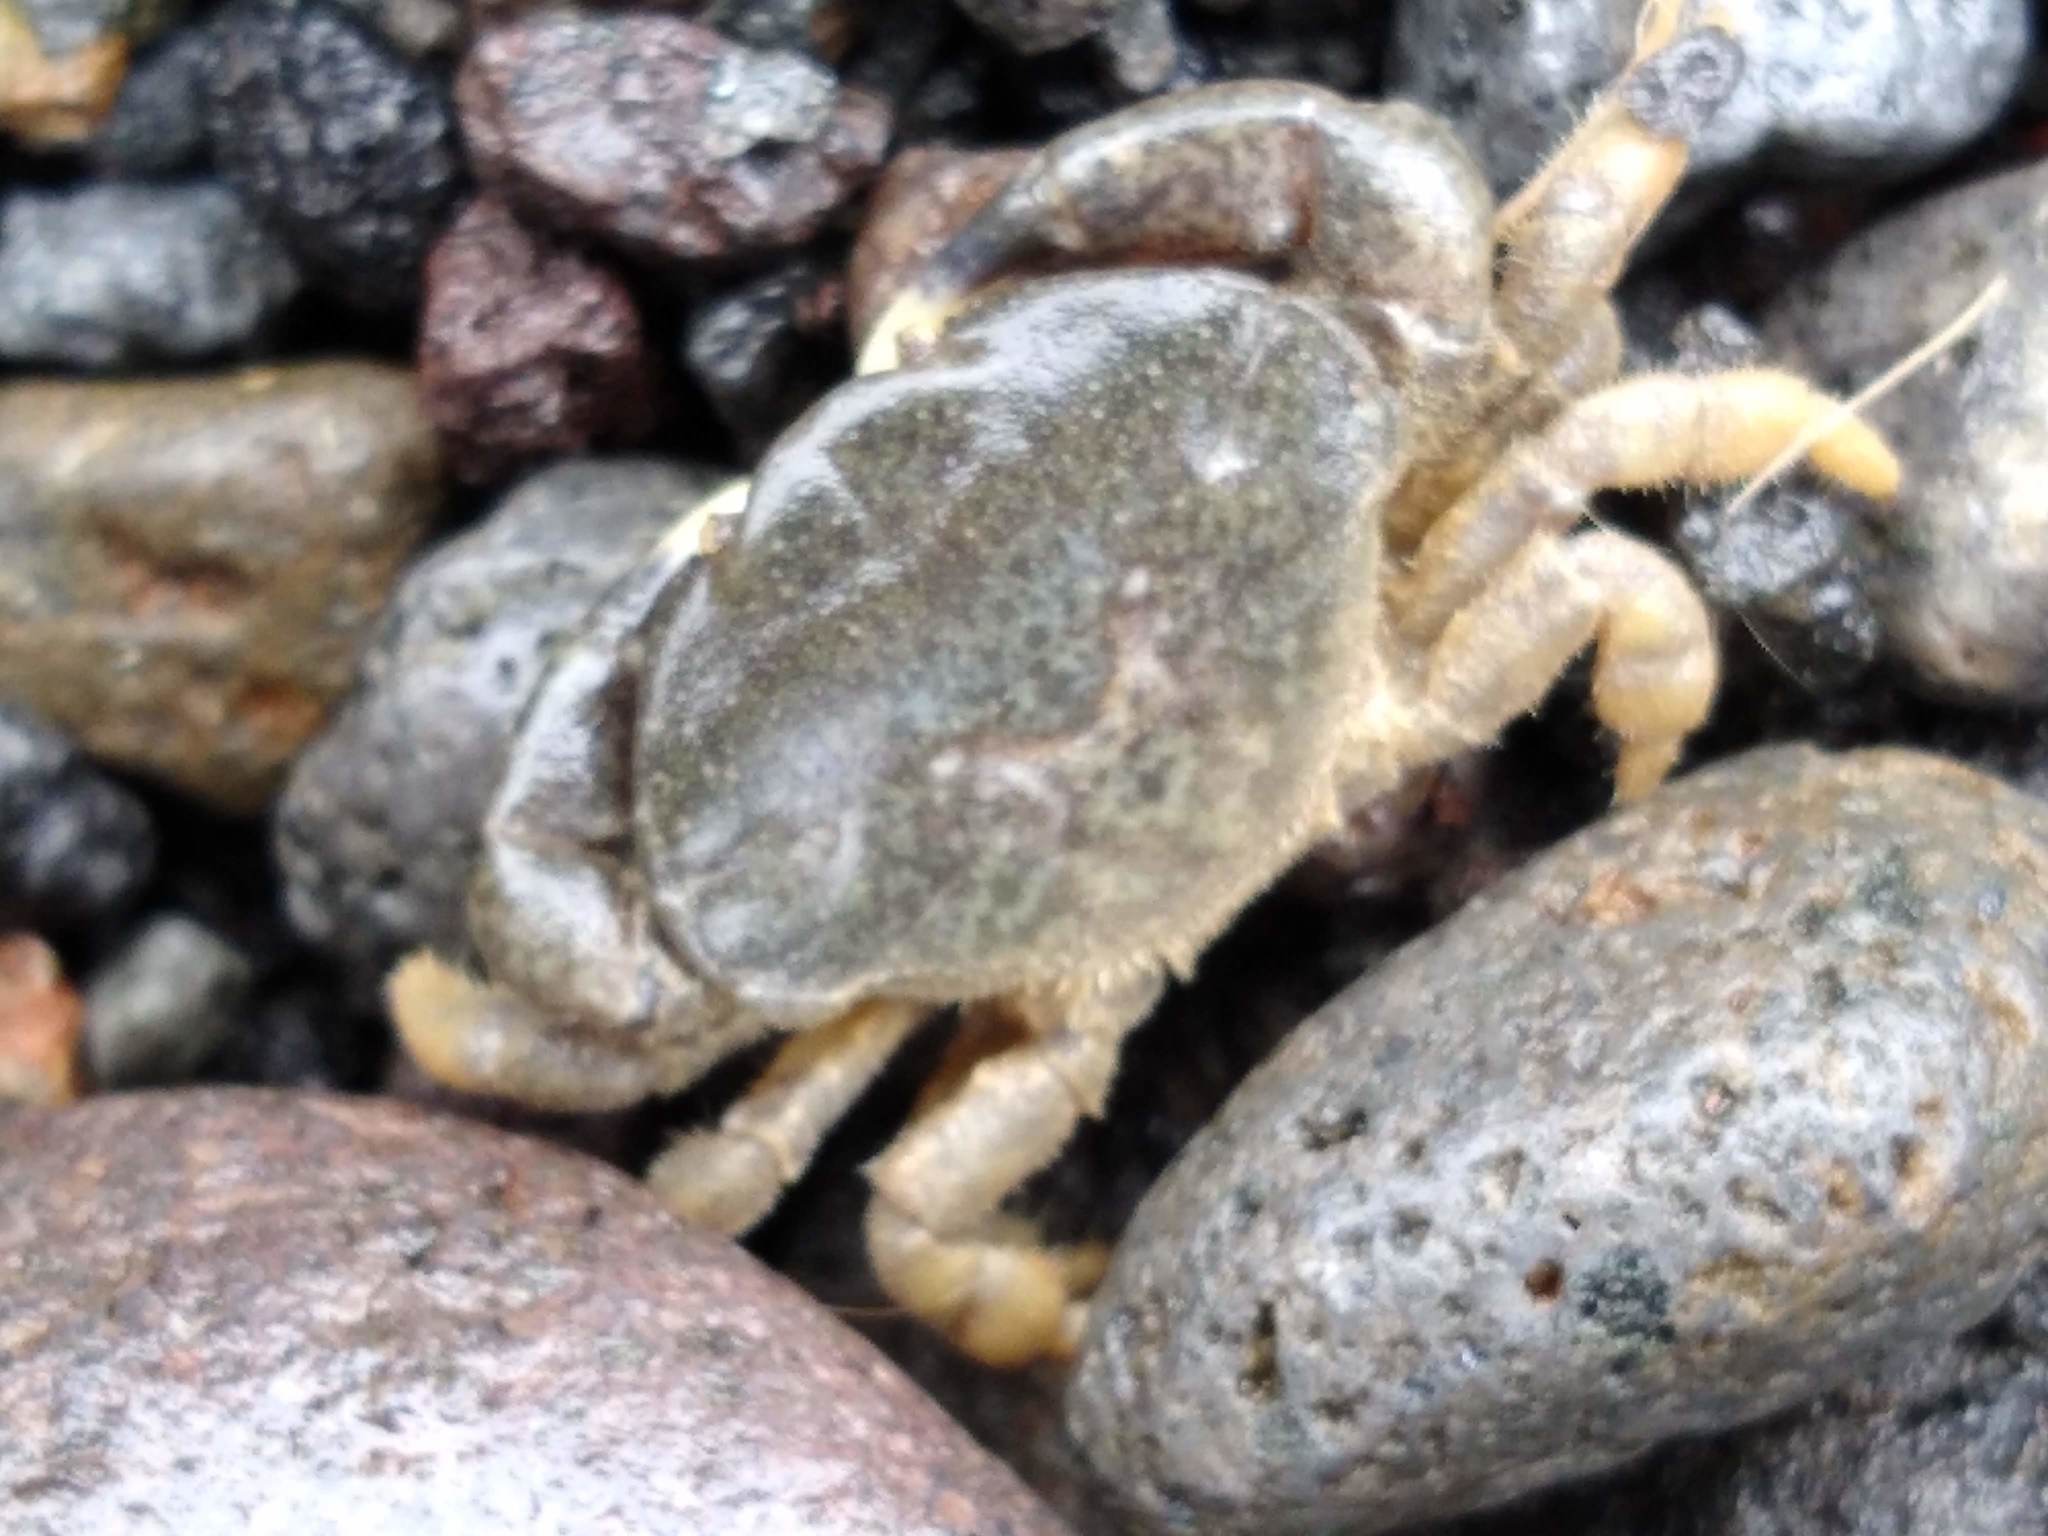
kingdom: Animalia
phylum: Arthropoda
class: Malacostraca
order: Decapoda
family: Heteroziidae
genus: Heterozius
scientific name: Heterozius rotundifrons
